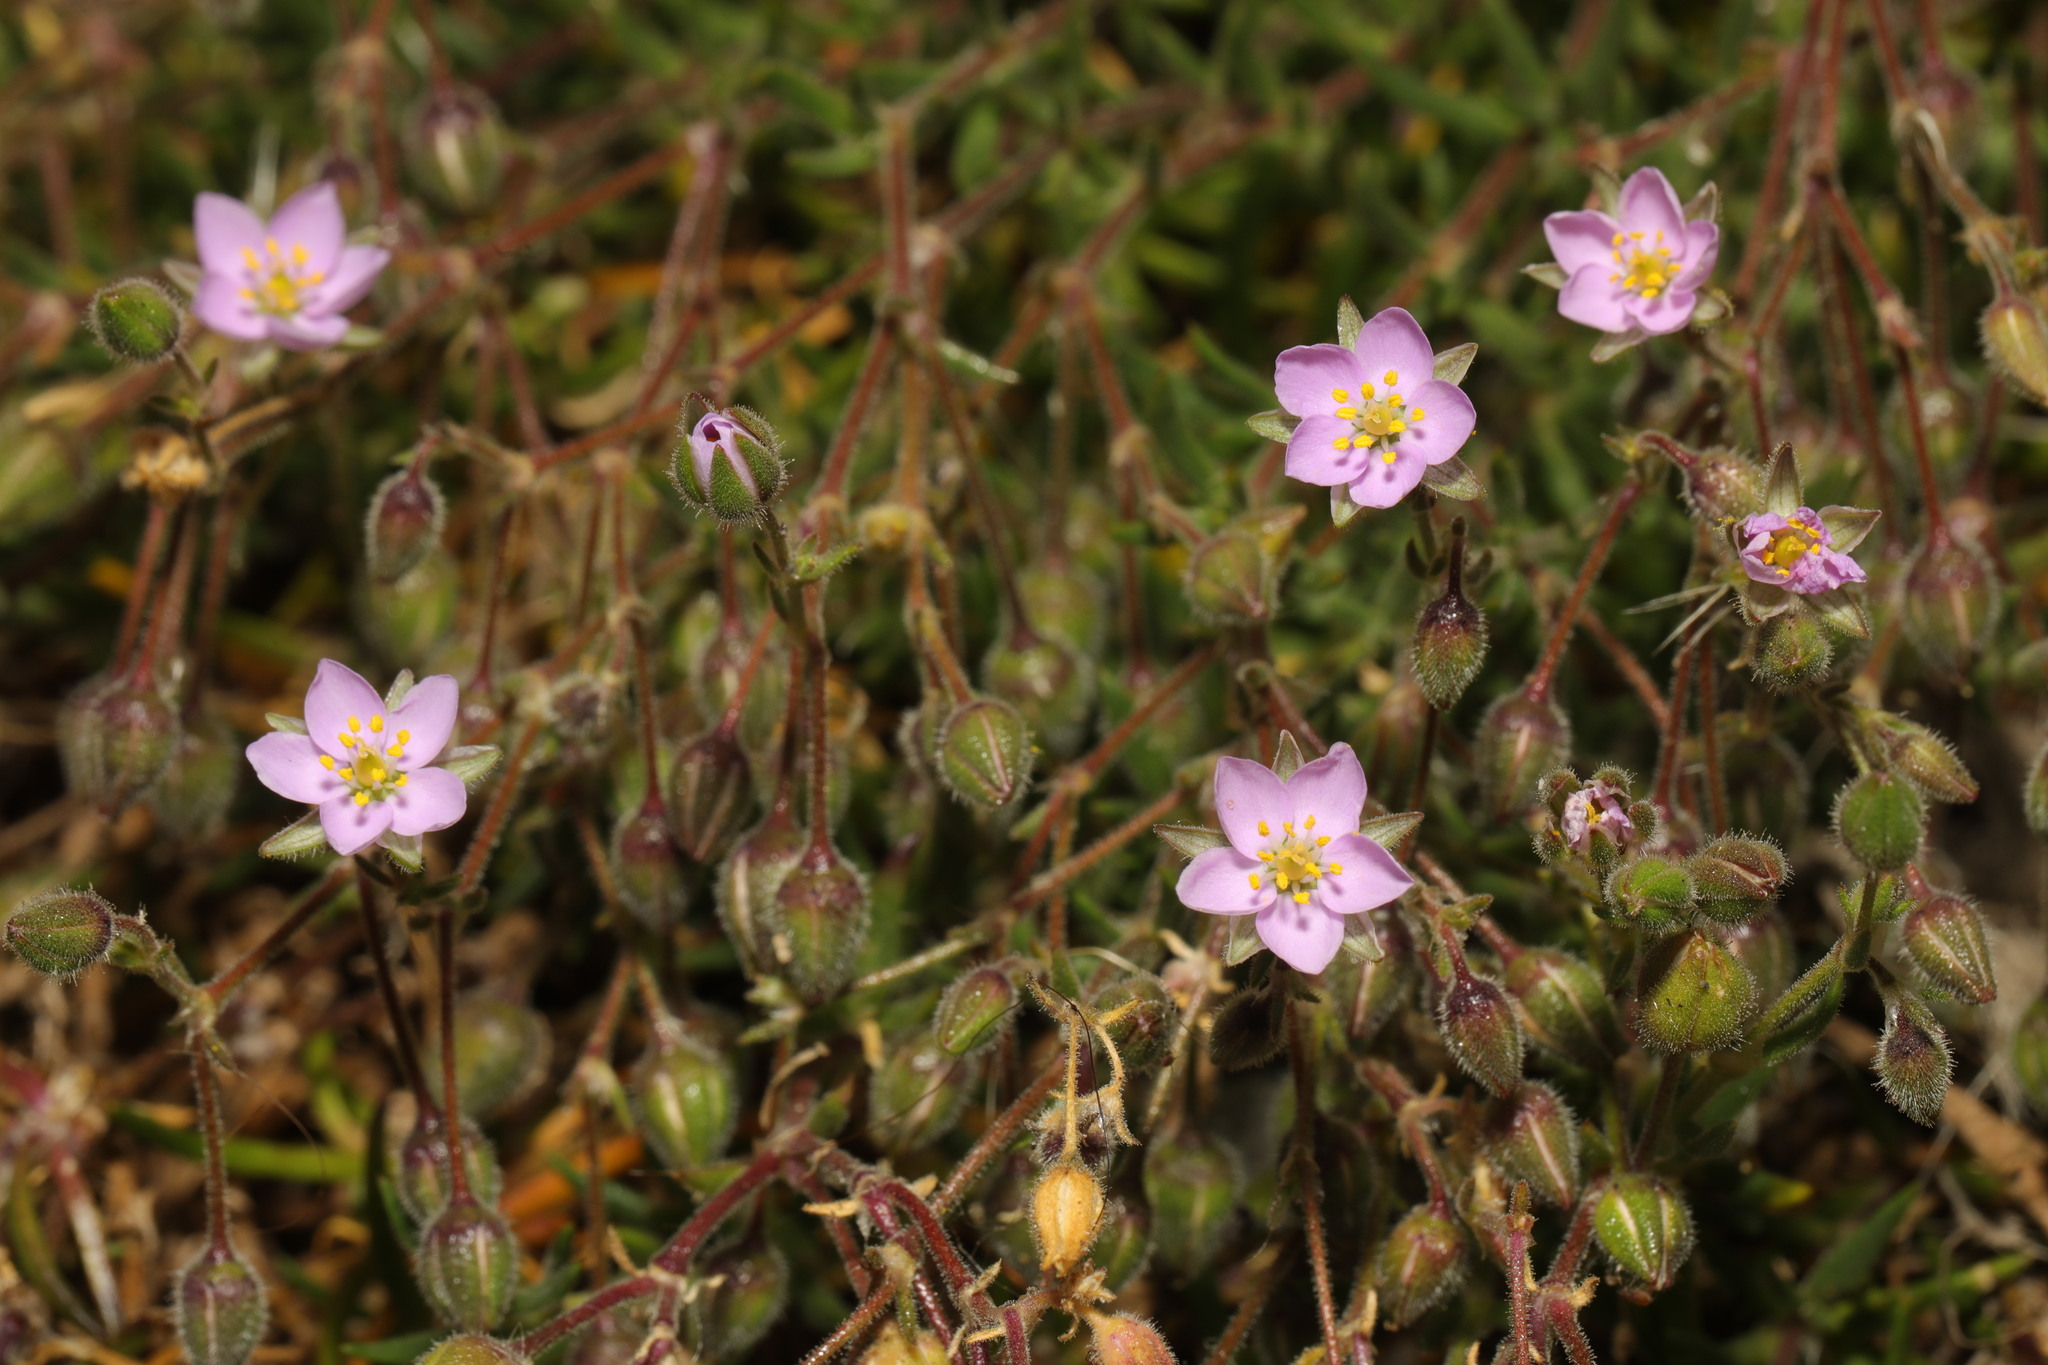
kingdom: Plantae
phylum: Tracheophyta
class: Magnoliopsida
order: Caryophyllales
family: Caryophyllaceae
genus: Spergularia
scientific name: Spergularia rupicola
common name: Cliff sand-spurrey
